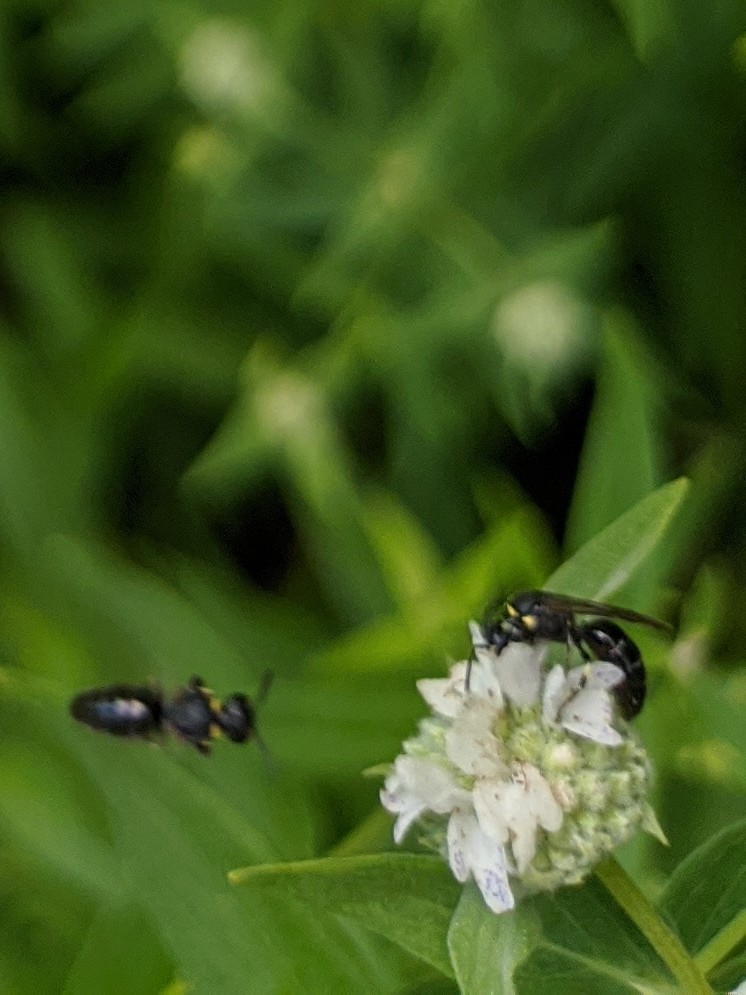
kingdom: Animalia
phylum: Arthropoda
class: Insecta
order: Hymenoptera
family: Colletidae
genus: Hylaeus
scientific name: Hylaeus modestus
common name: Yellow-faced bee
